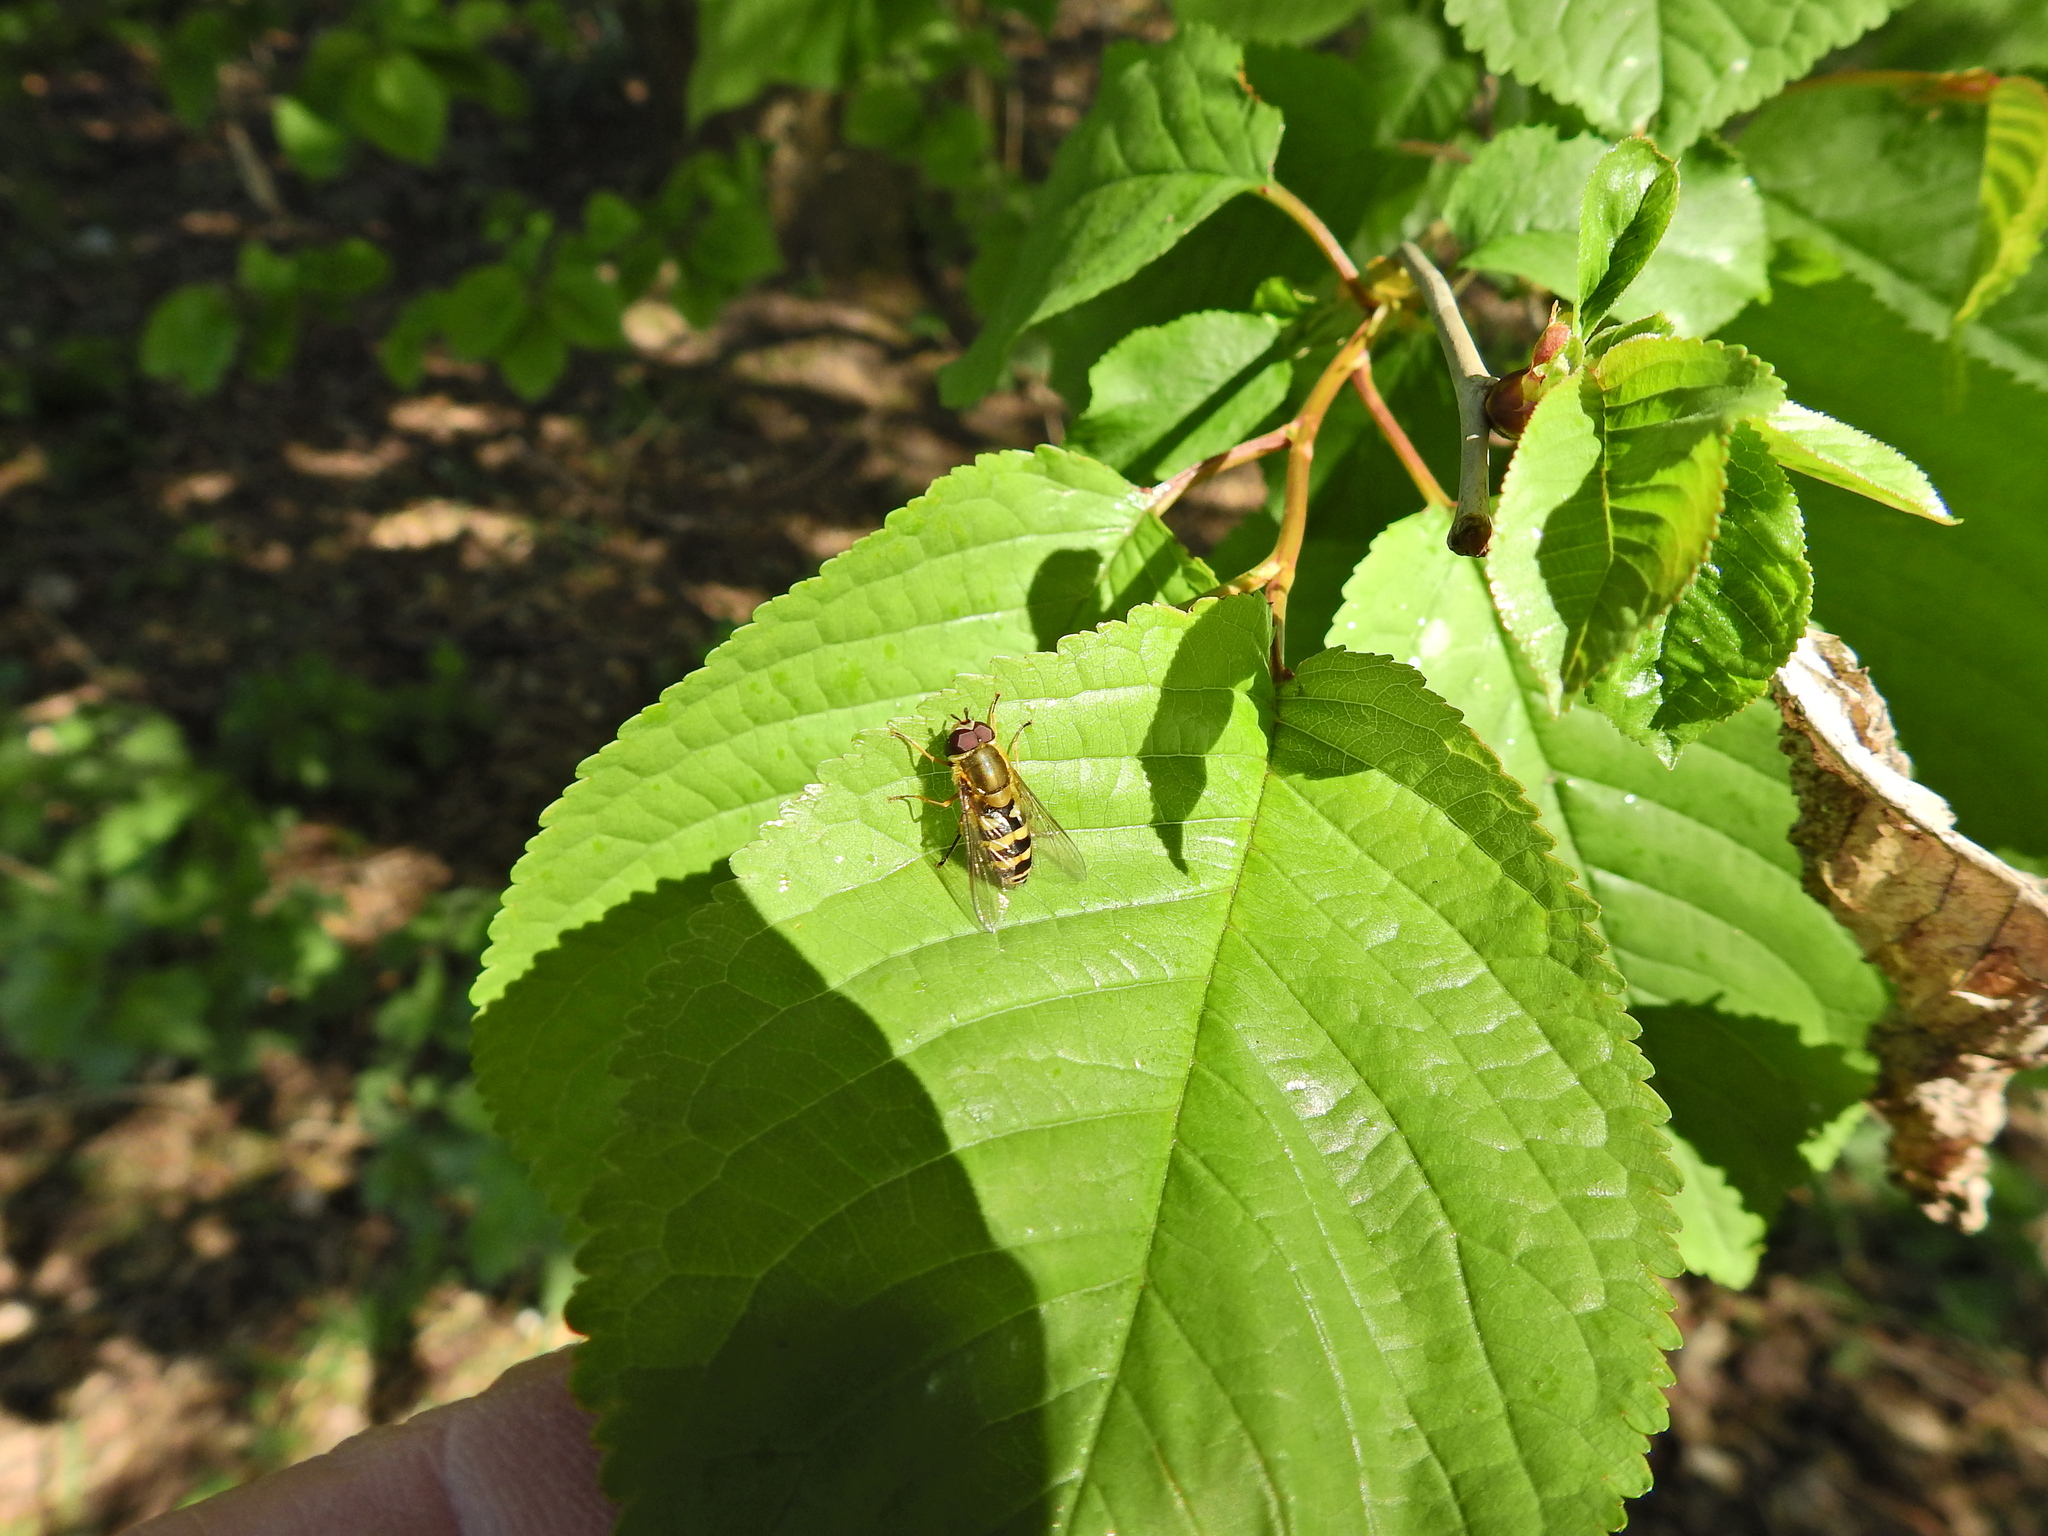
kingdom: Animalia
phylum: Arthropoda
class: Insecta
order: Diptera
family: Syrphidae
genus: Syrphus
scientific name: Syrphus
